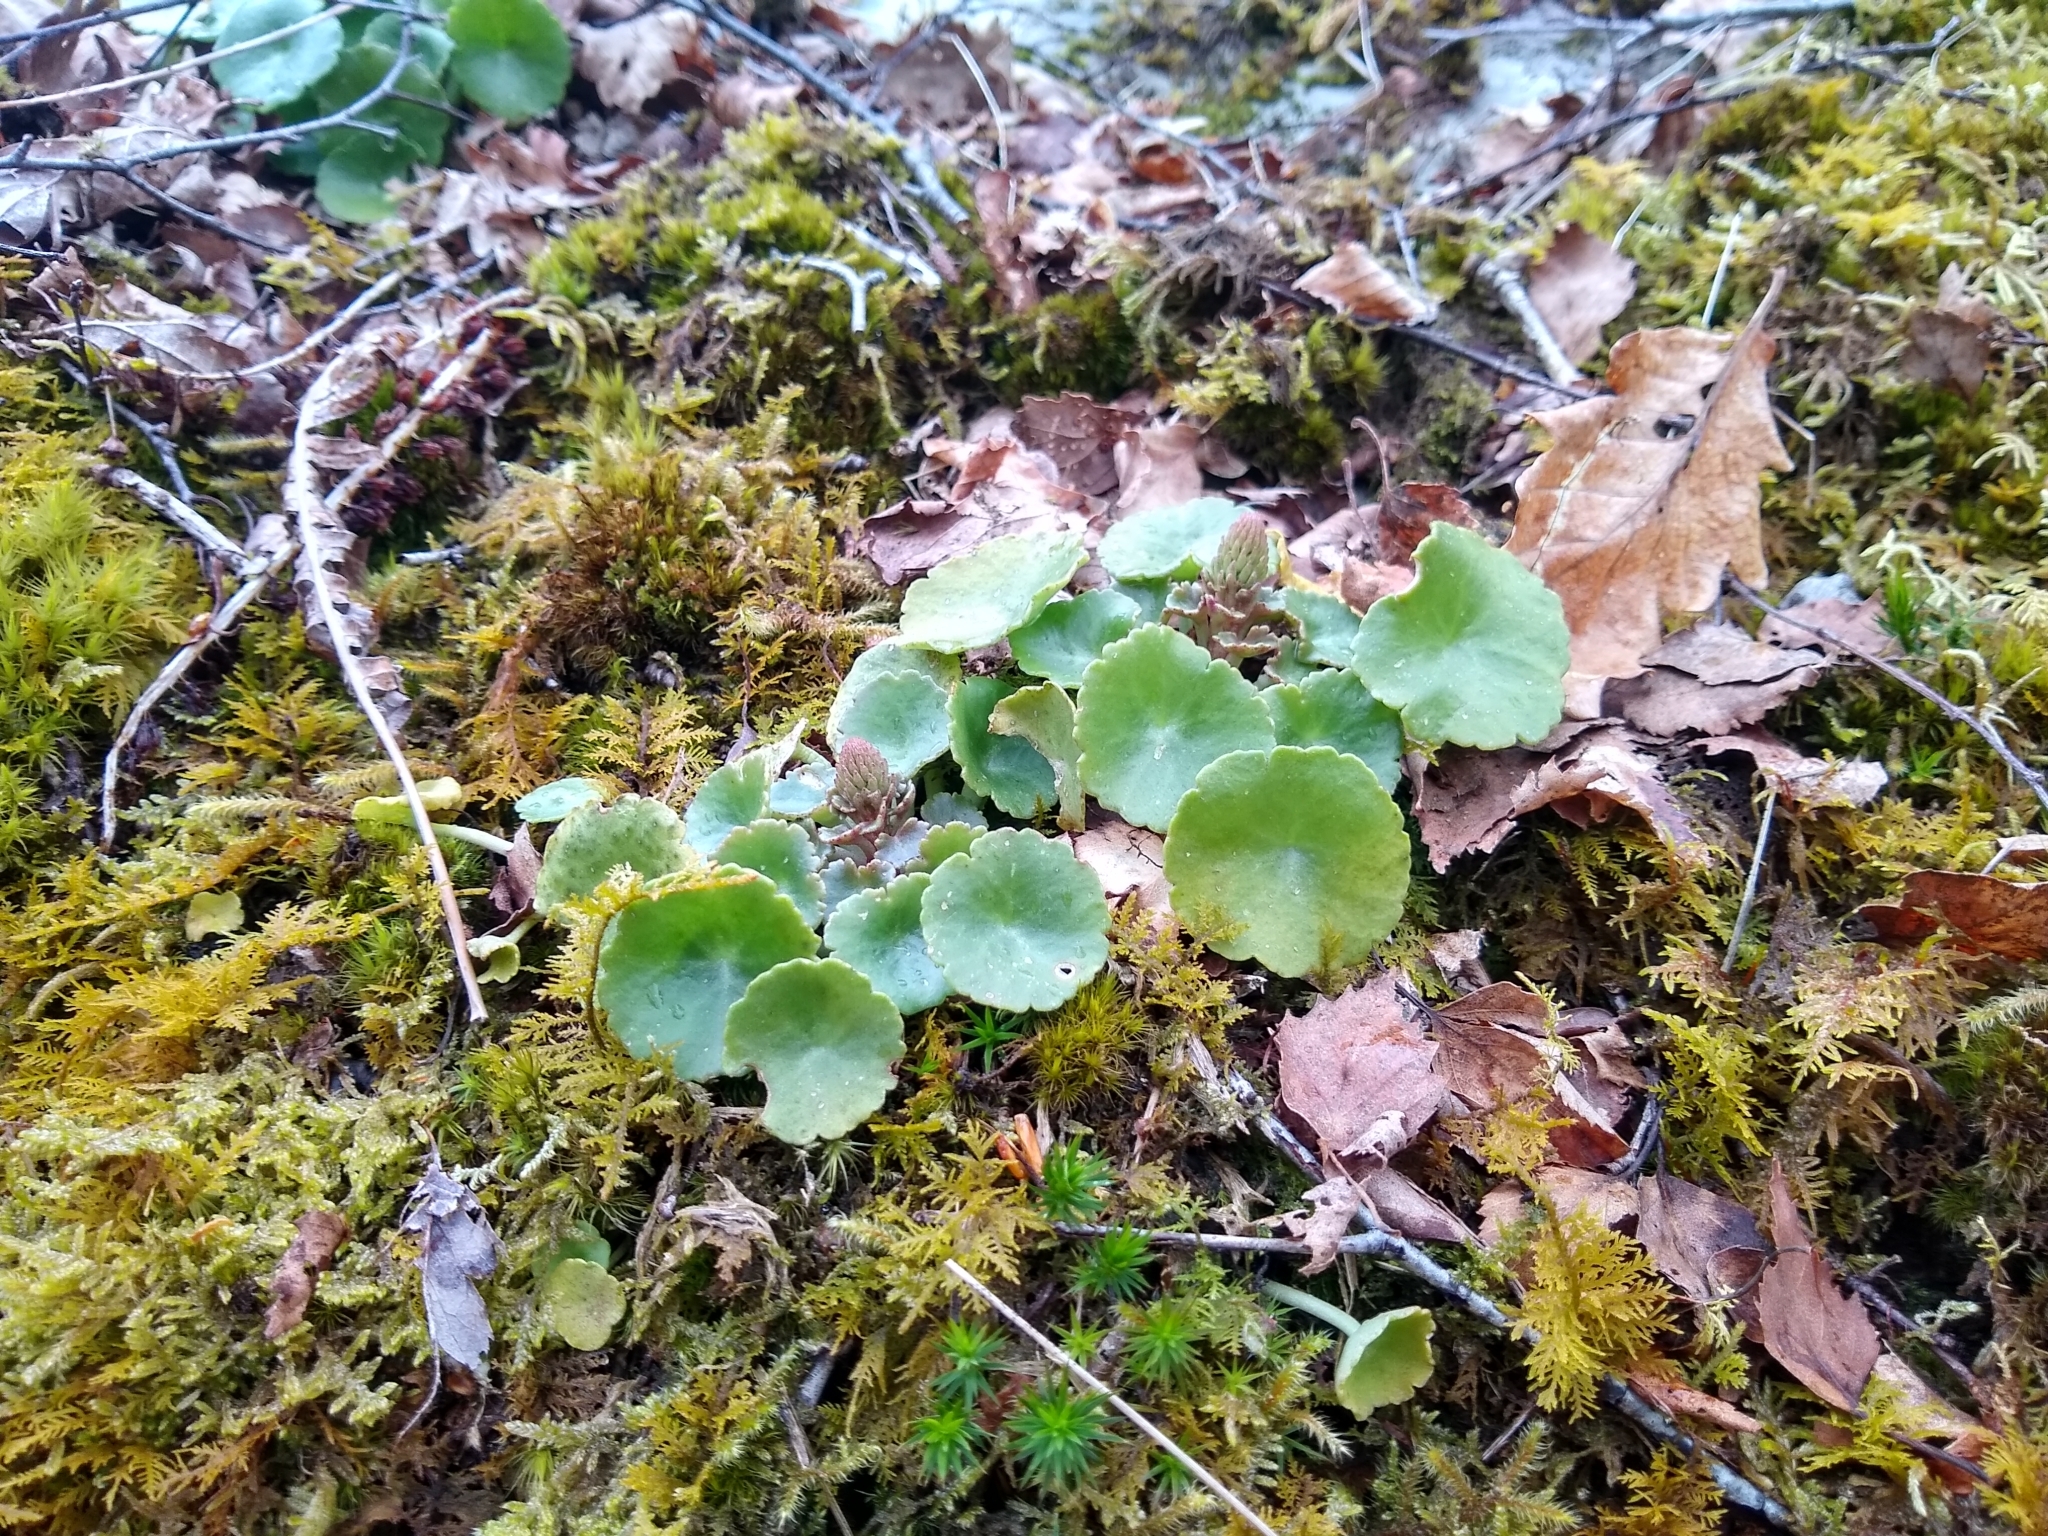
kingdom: Plantae
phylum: Tracheophyta
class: Magnoliopsida
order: Saxifragales
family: Crassulaceae
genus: Umbilicus
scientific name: Umbilicus rupestris
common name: Navelwort
